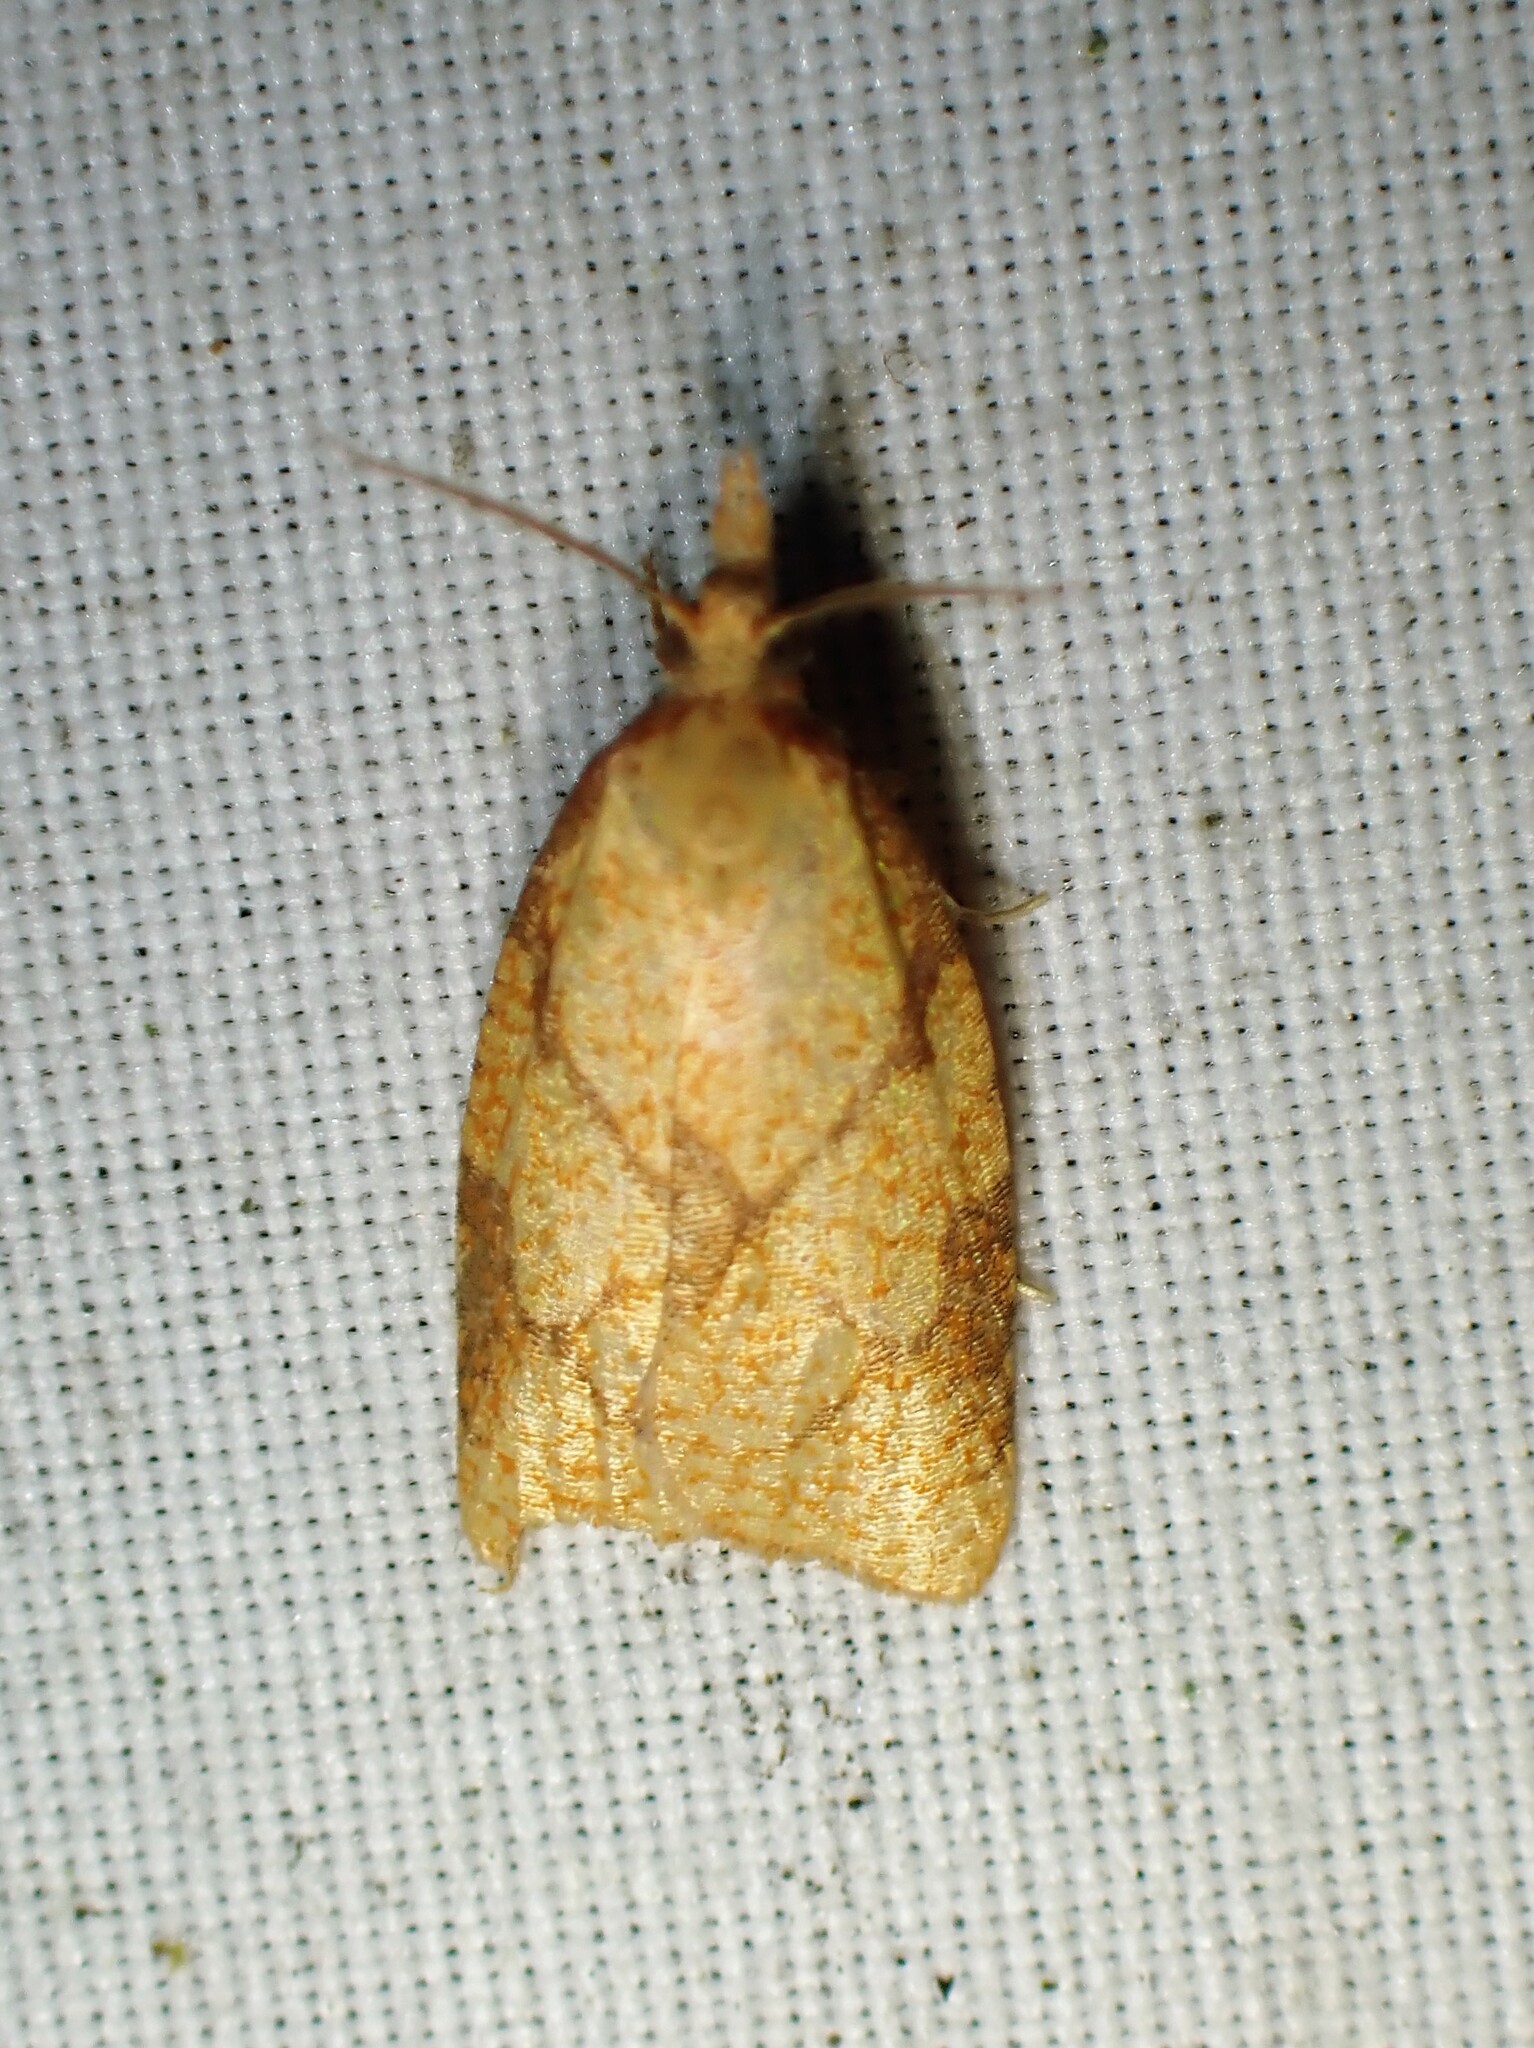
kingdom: Animalia
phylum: Arthropoda
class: Insecta
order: Lepidoptera
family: Tortricidae
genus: Cenopis
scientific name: Cenopis reticulatana
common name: Reticulated fruitworm moth
